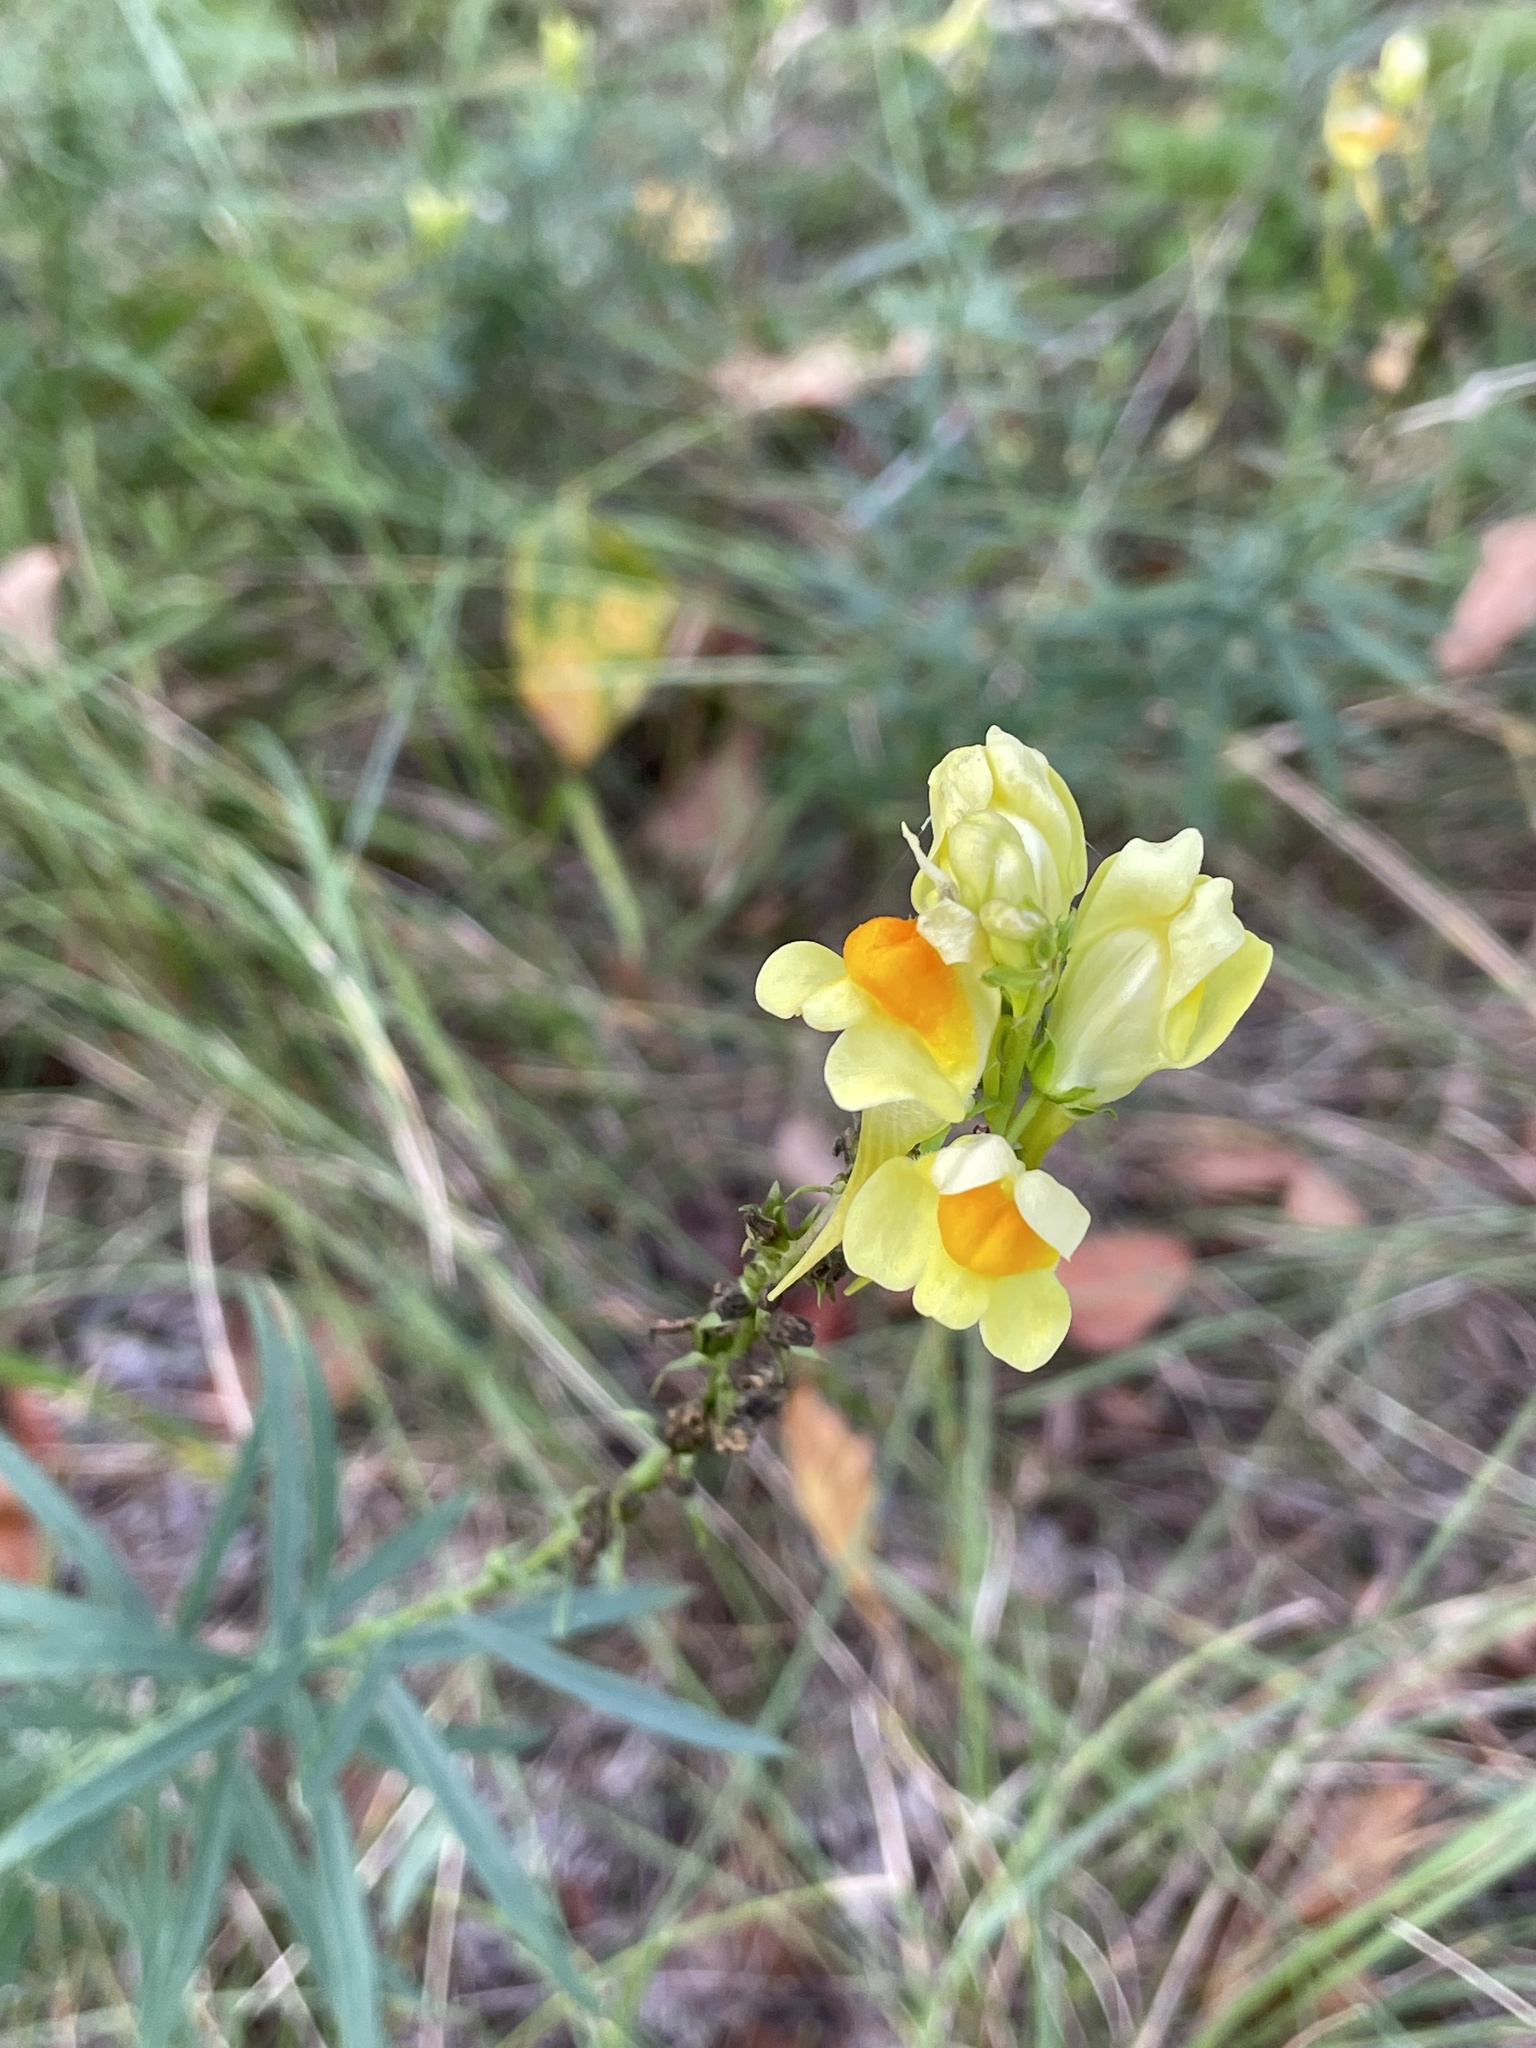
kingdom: Plantae
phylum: Tracheophyta
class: Magnoliopsida
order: Lamiales
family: Plantaginaceae
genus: Linaria
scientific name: Linaria vulgaris
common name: Butter and eggs
